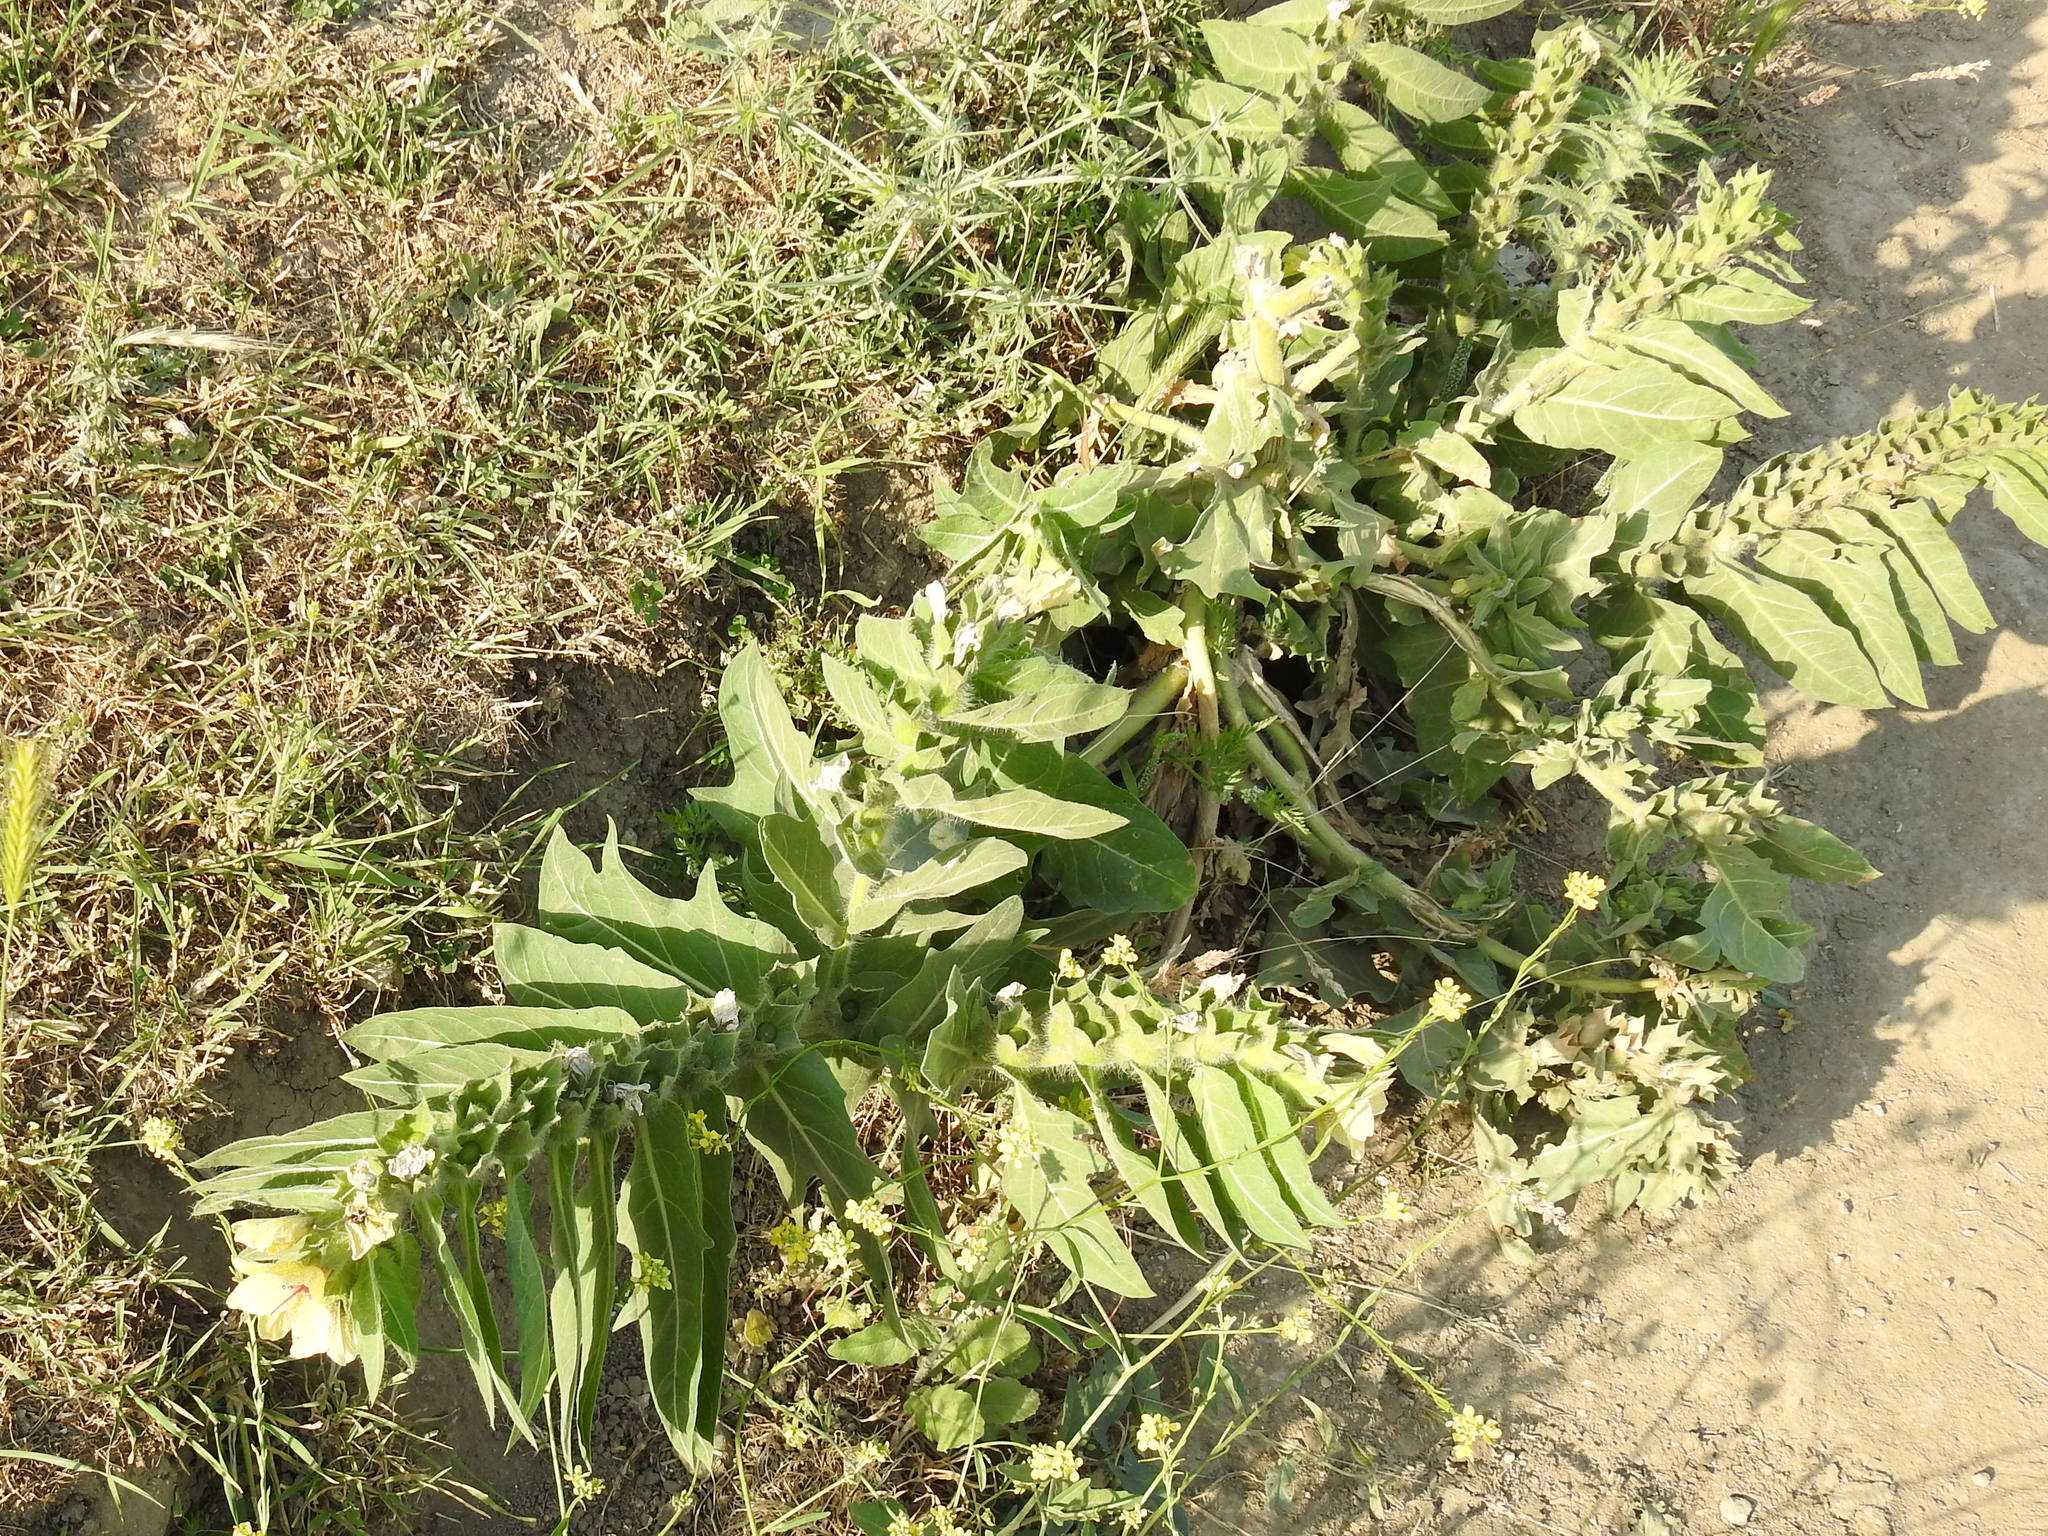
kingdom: Plantae
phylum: Tracheophyta
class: Magnoliopsida
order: Solanales
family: Solanaceae
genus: Hyoscyamus
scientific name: Hyoscyamus niger
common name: Henbane
